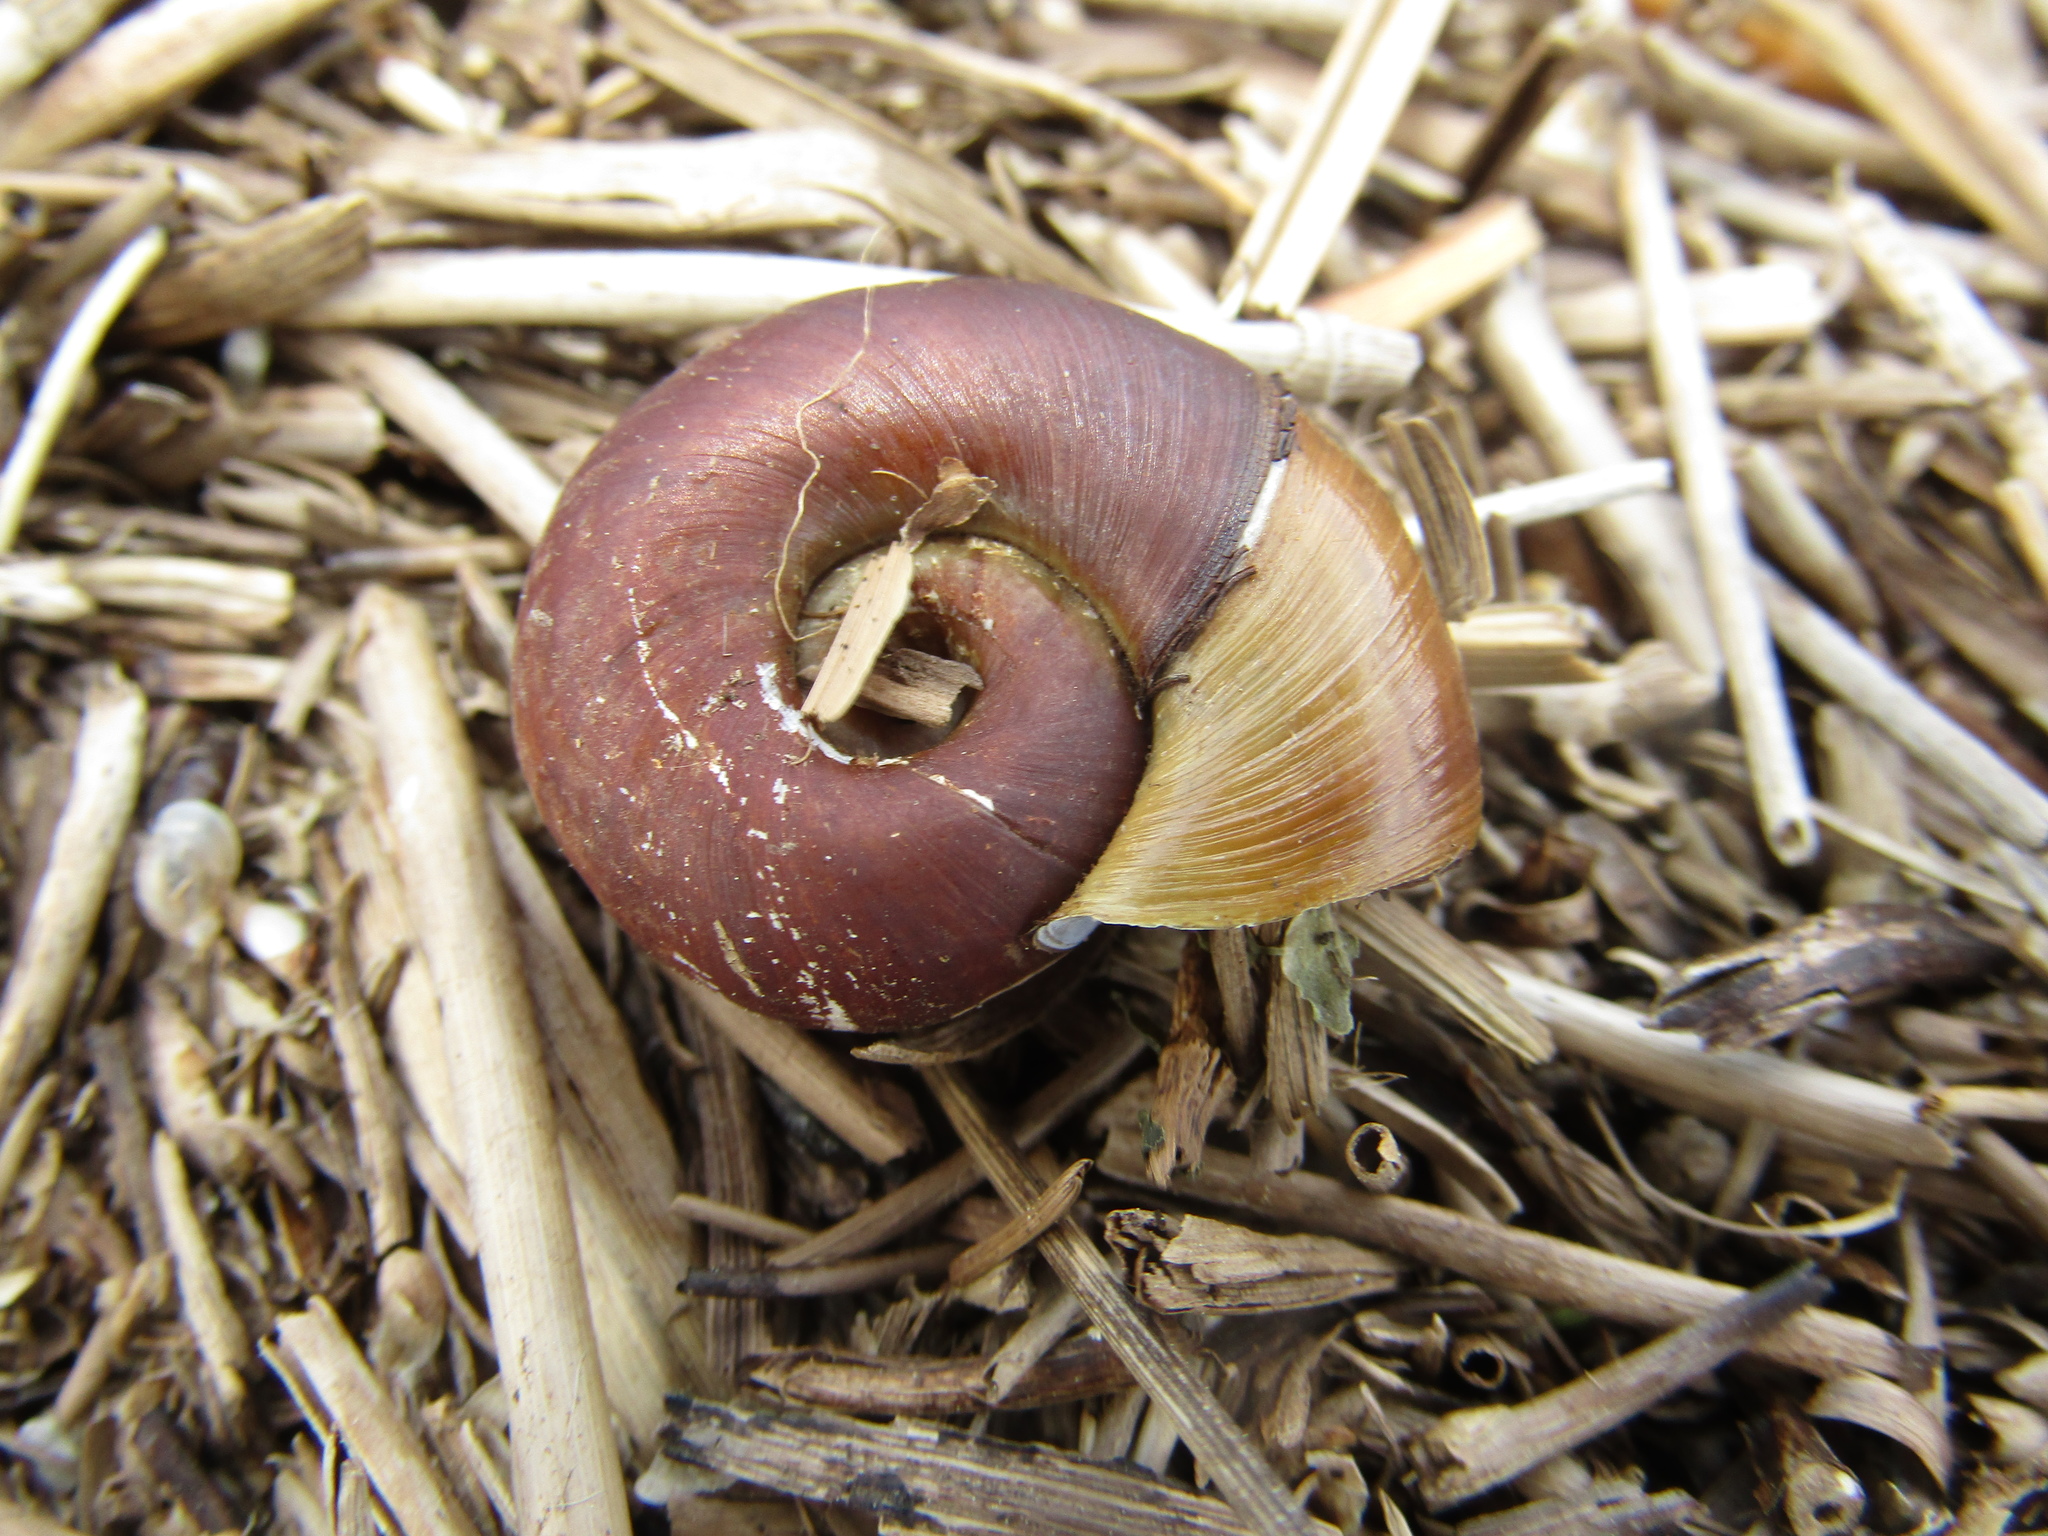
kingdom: Animalia
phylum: Mollusca
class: Gastropoda
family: Planorbidae
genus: Planorbarius
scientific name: Planorbarius corneus
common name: Great ramshorn
